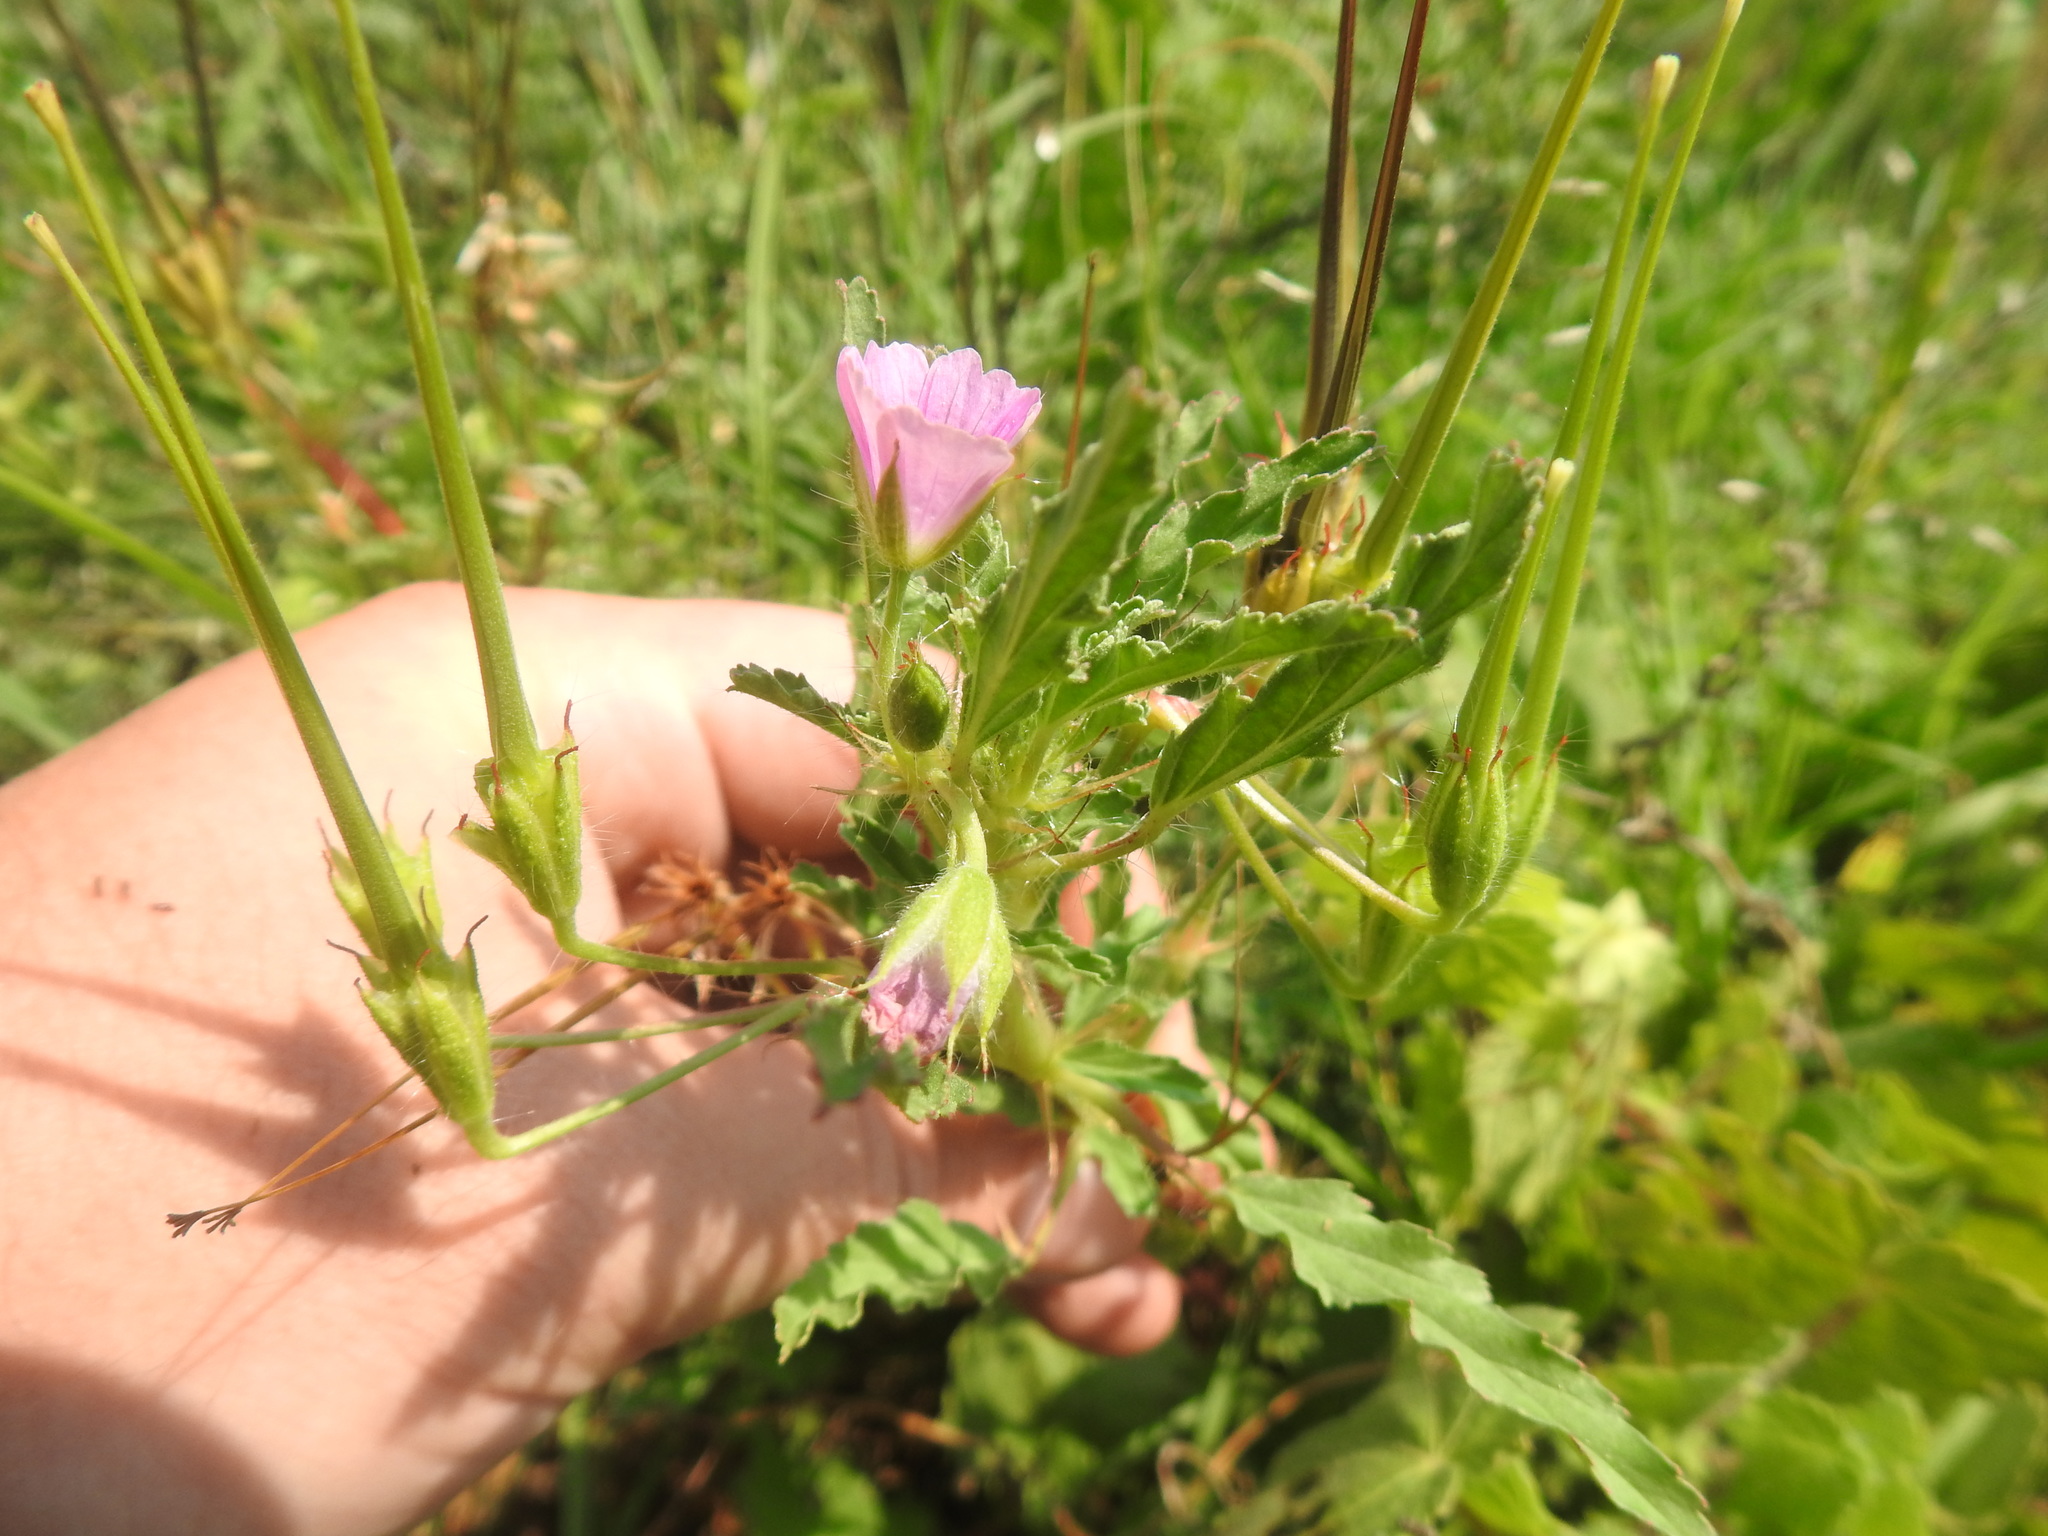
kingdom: Plantae
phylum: Tracheophyta
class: Magnoliopsida
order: Geraniales
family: Geraniaceae
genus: Monsonia
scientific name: Monsonia angustifolia
